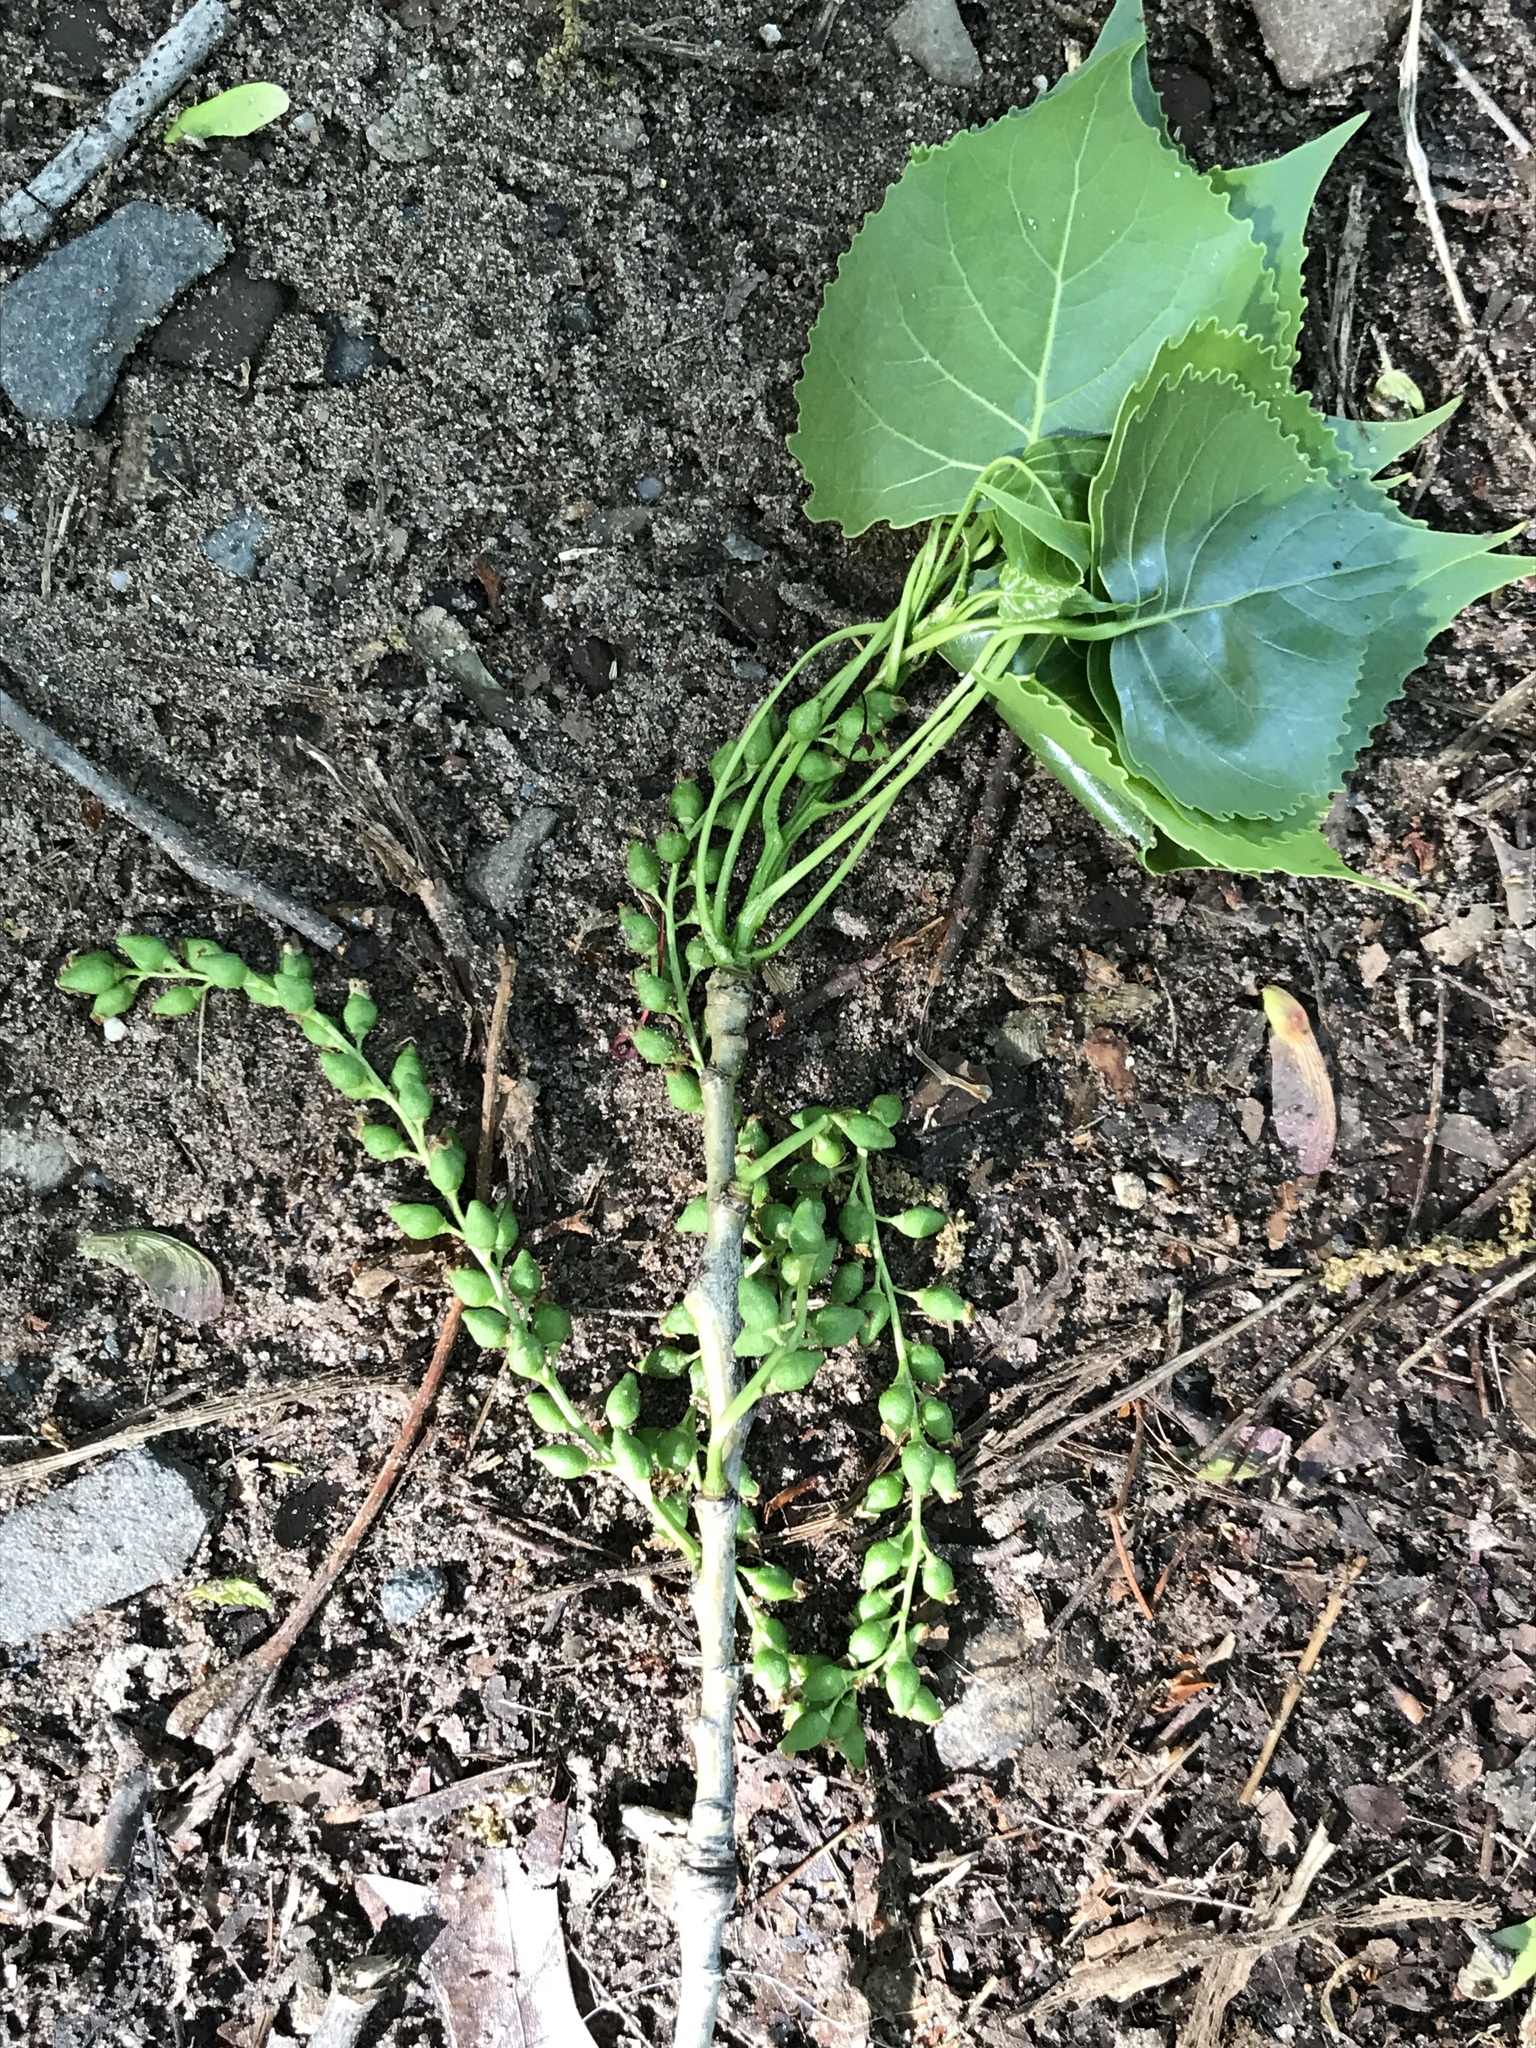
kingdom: Plantae
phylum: Tracheophyta
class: Magnoliopsida
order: Malpighiales
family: Salicaceae
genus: Populus
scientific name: Populus deltoides
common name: Eastern cottonwood
